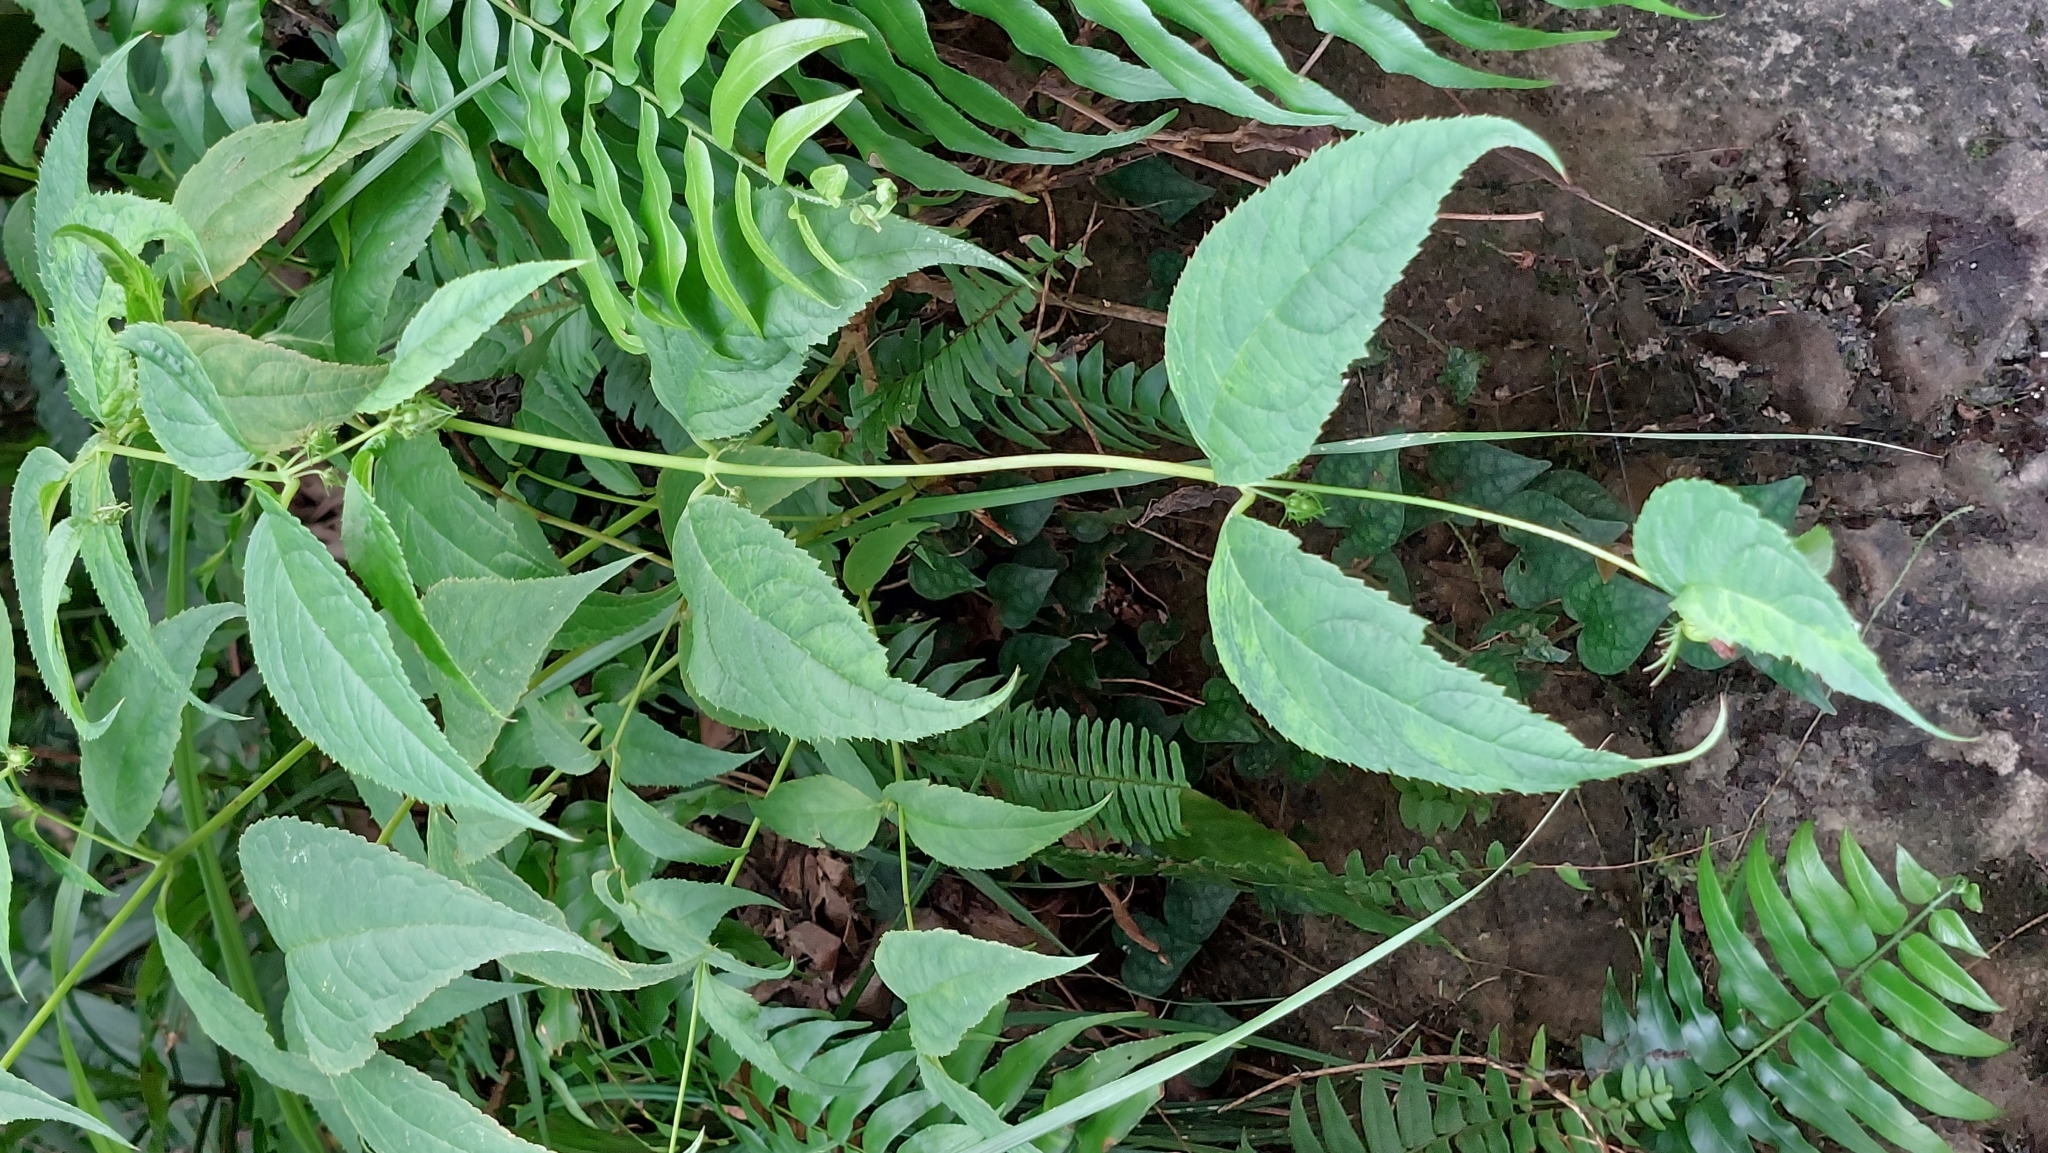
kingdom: Plantae
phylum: Tracheophyta
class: Magnoliopsida
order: Asterales
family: Campanulaceae
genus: Cyclocodon
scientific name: Cyclocodon lancifolius
